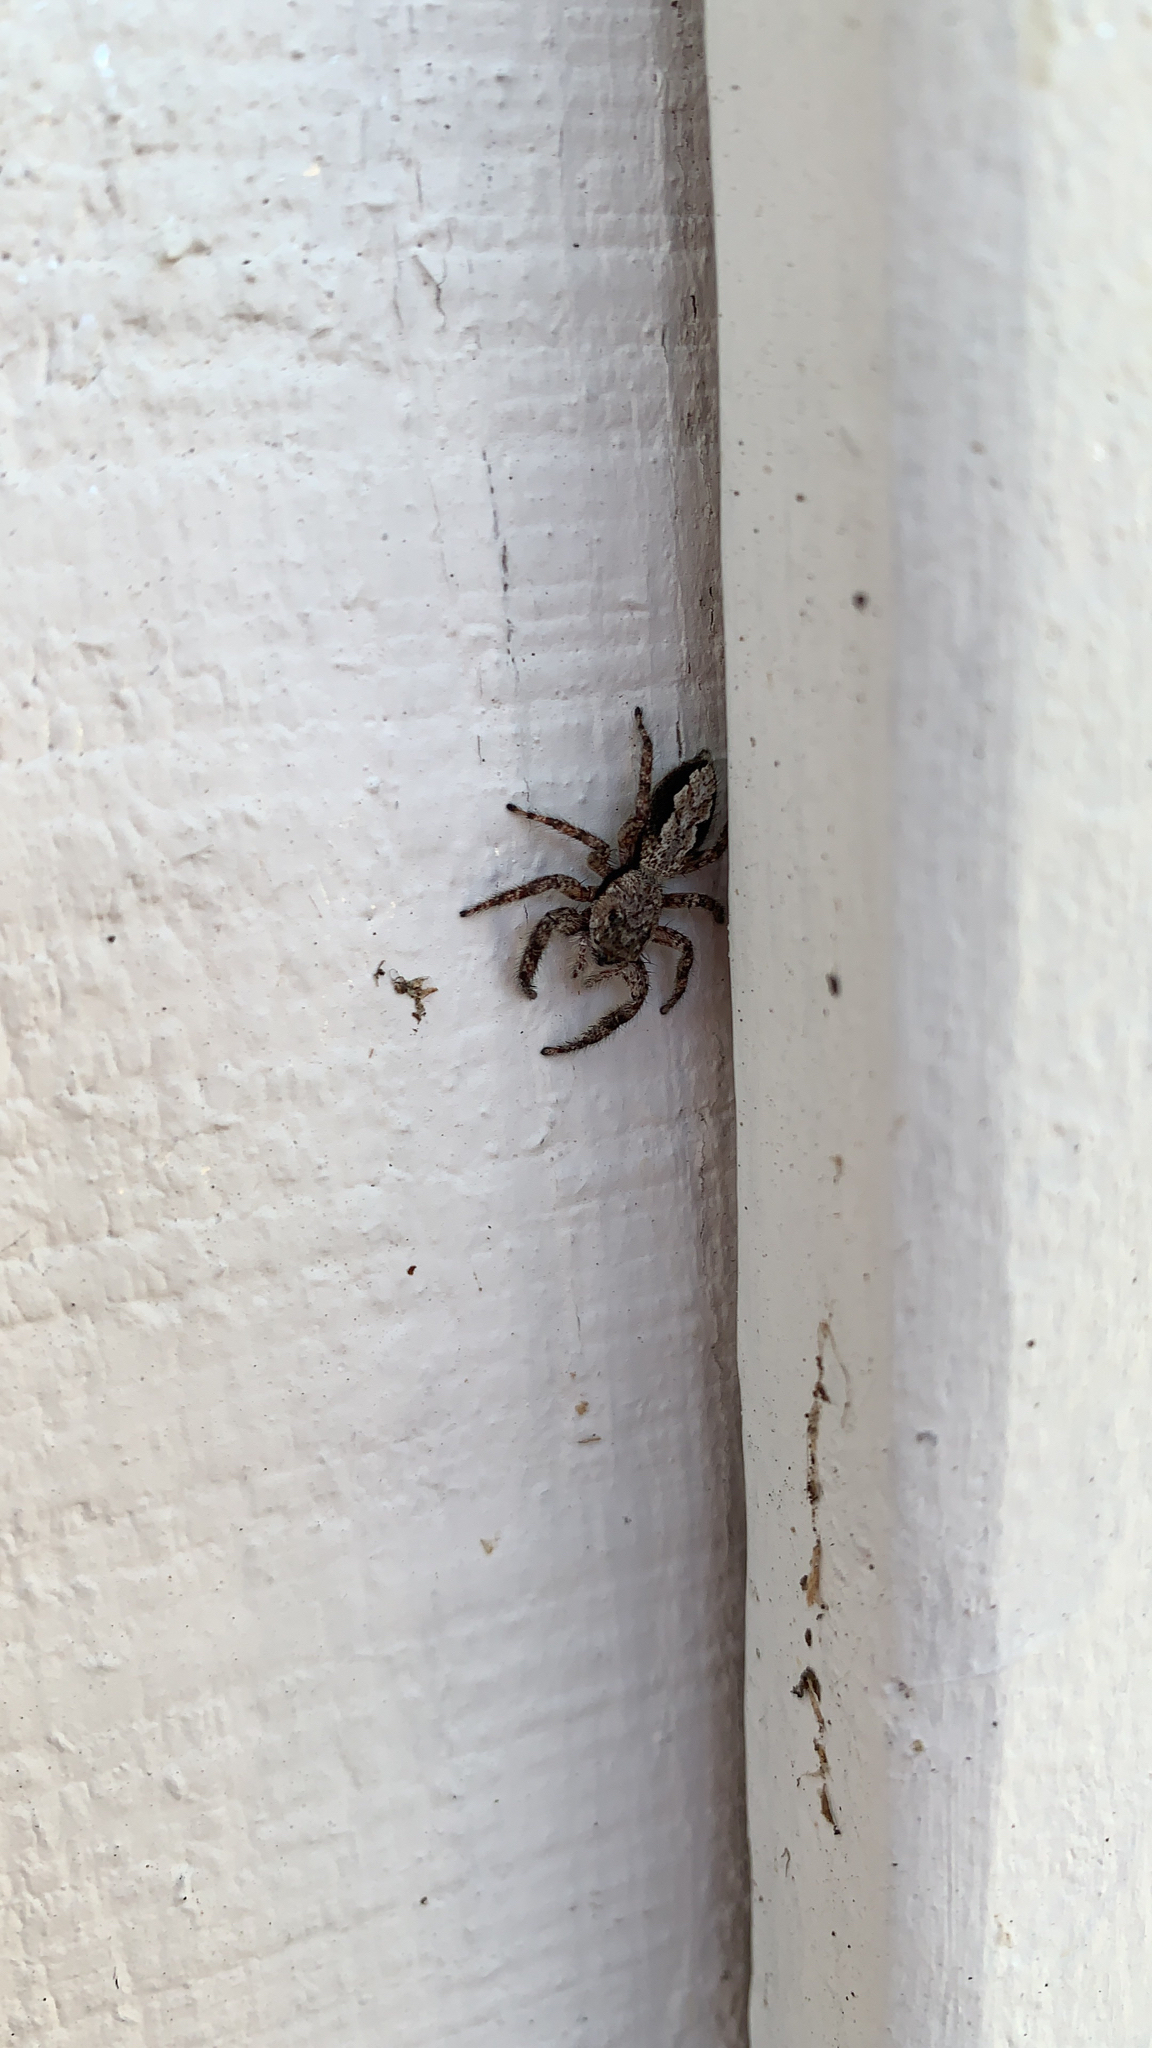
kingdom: Animalia
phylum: Arthropoda
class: Arachnida
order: Araneae
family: Salticidae
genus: Platycryptus
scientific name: Platycryptus undatus
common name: Tan jumping spider
